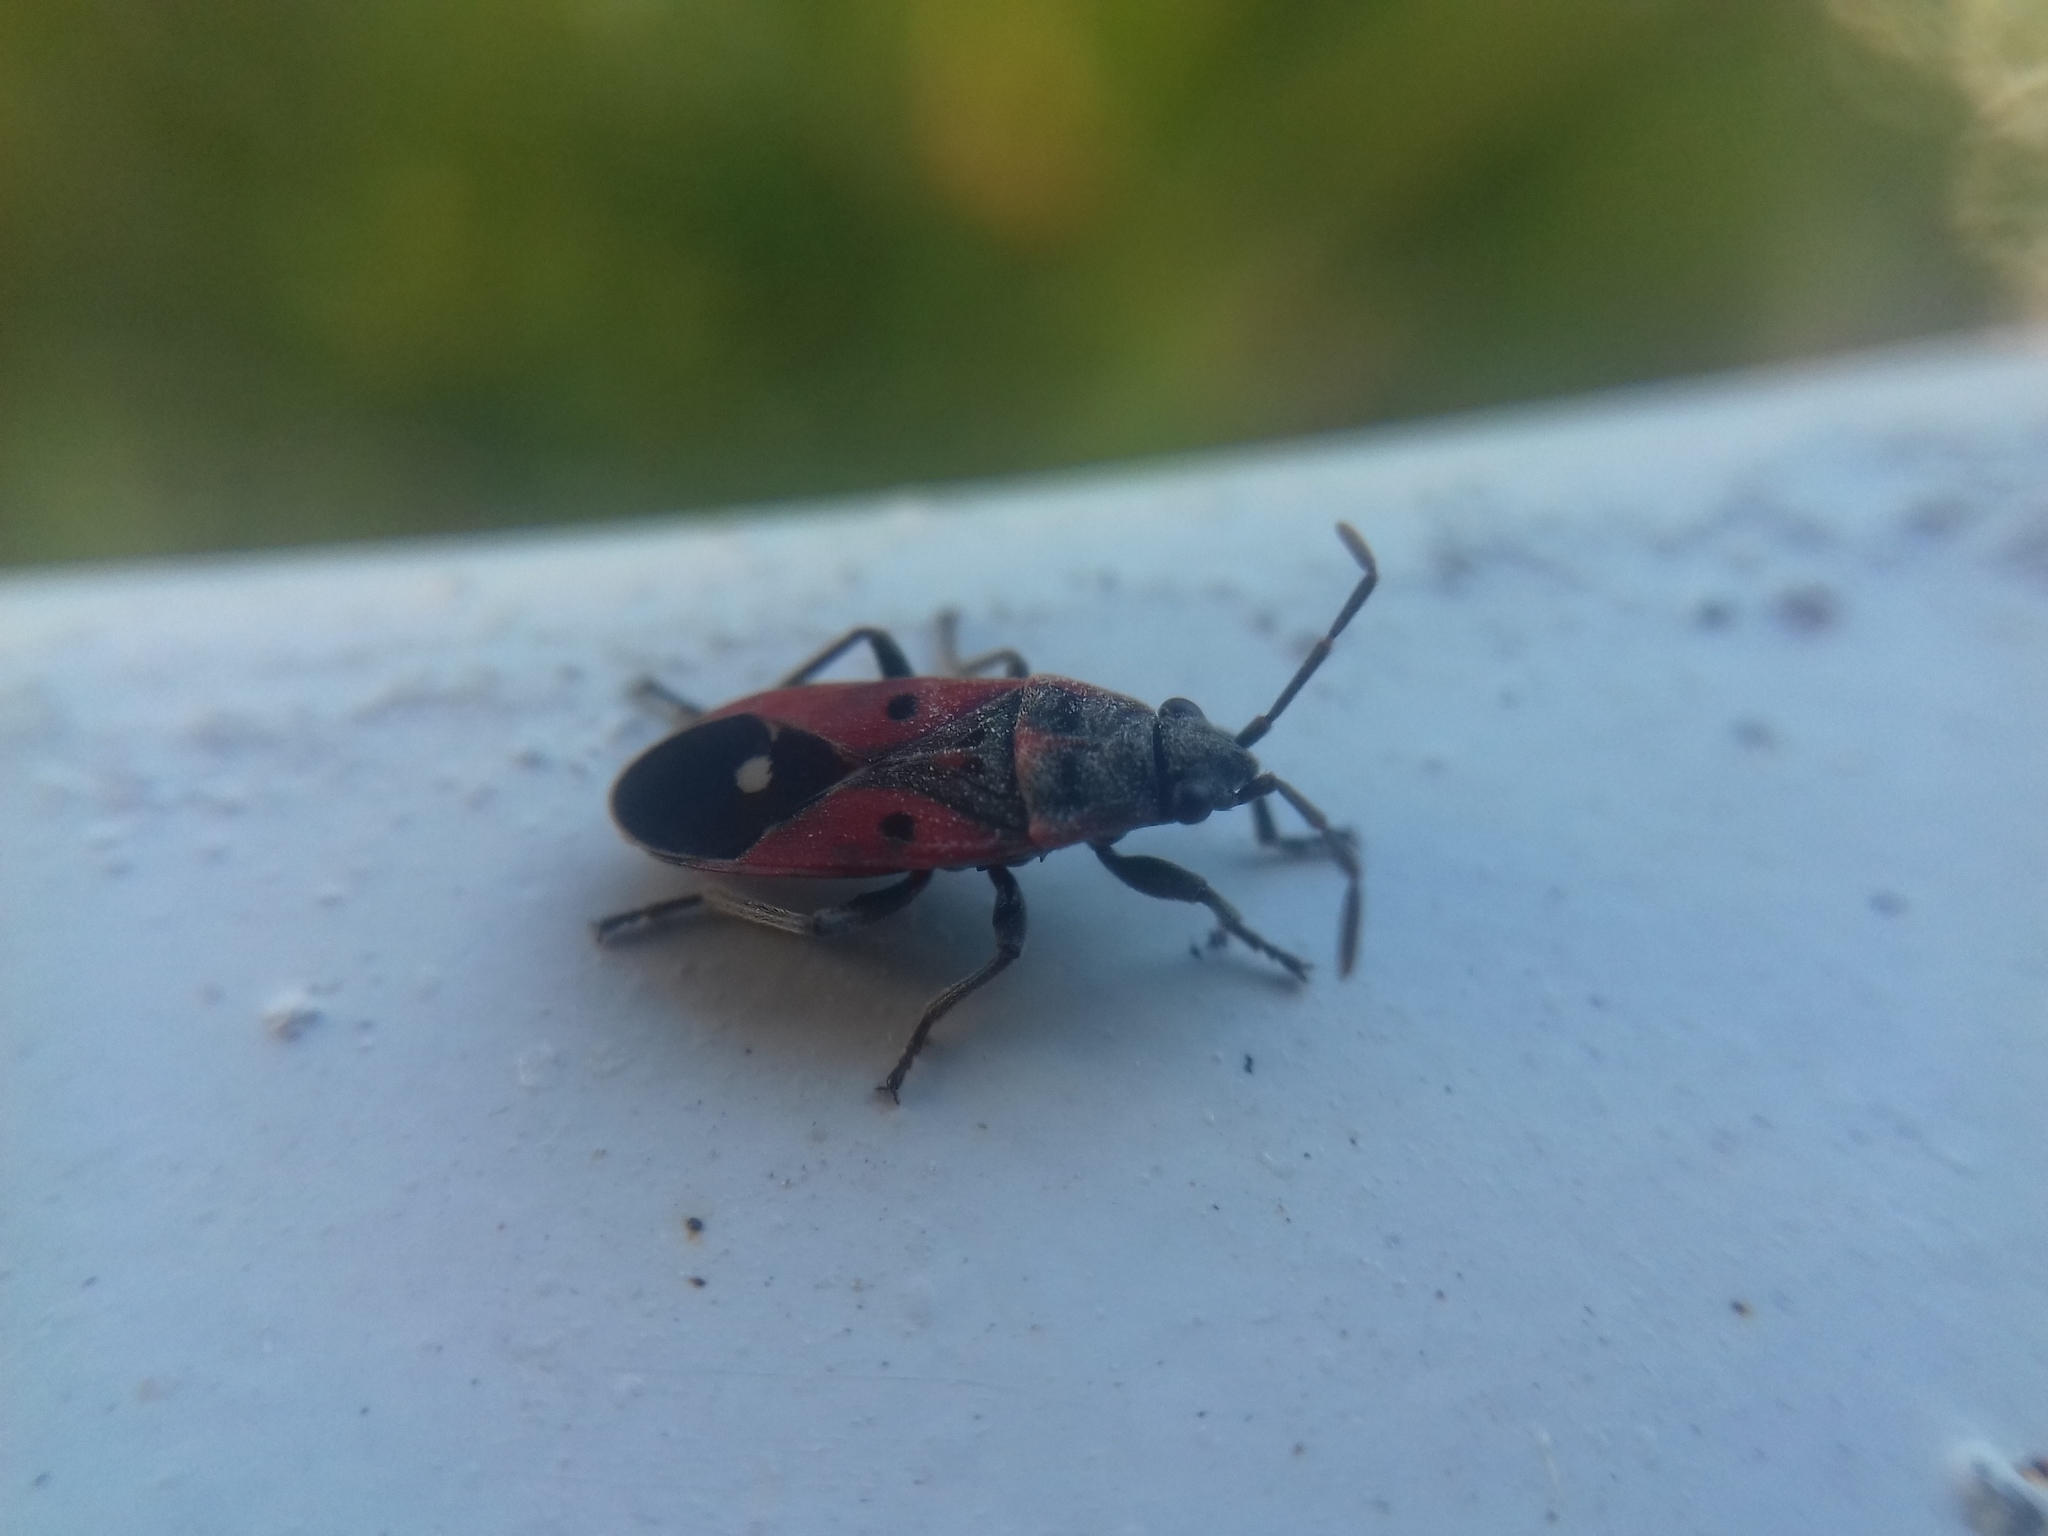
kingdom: Animalia
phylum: Arthropoda
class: Insecta
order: Hemiptera
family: Lygaeidae
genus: Melanocoryphus
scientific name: Melanocoryphus tristrami
